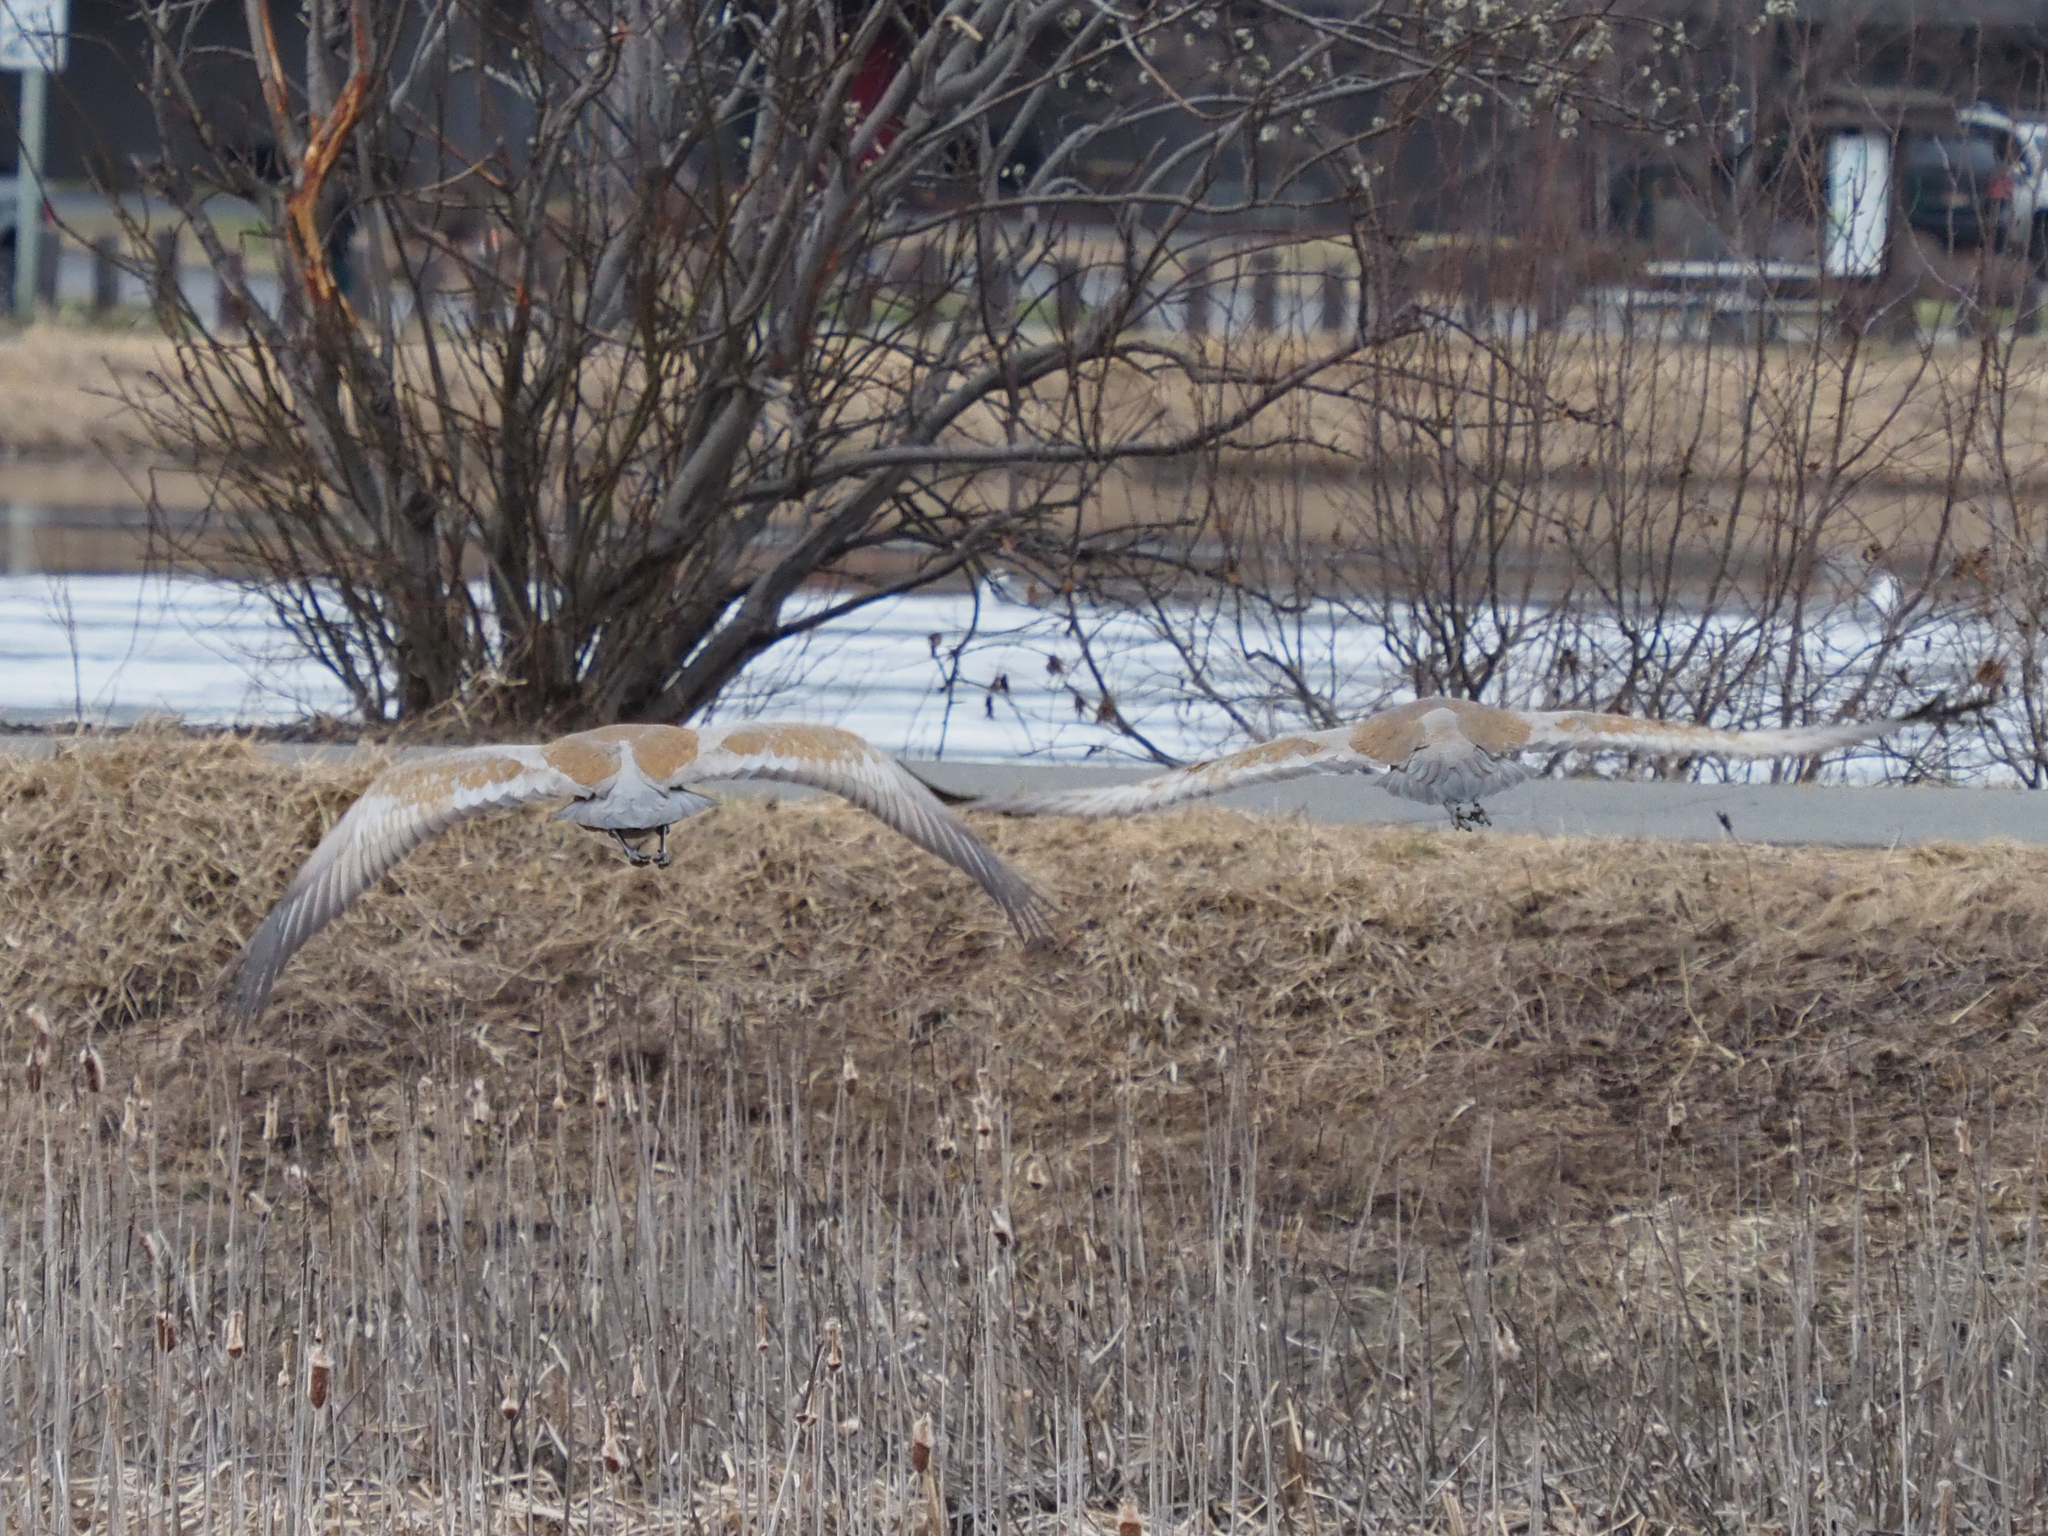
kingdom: Animalia
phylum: Chordata
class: Aves
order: Gruiformes
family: Gruidae
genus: Grus
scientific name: Grus canadensis
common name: Sandhill crane
